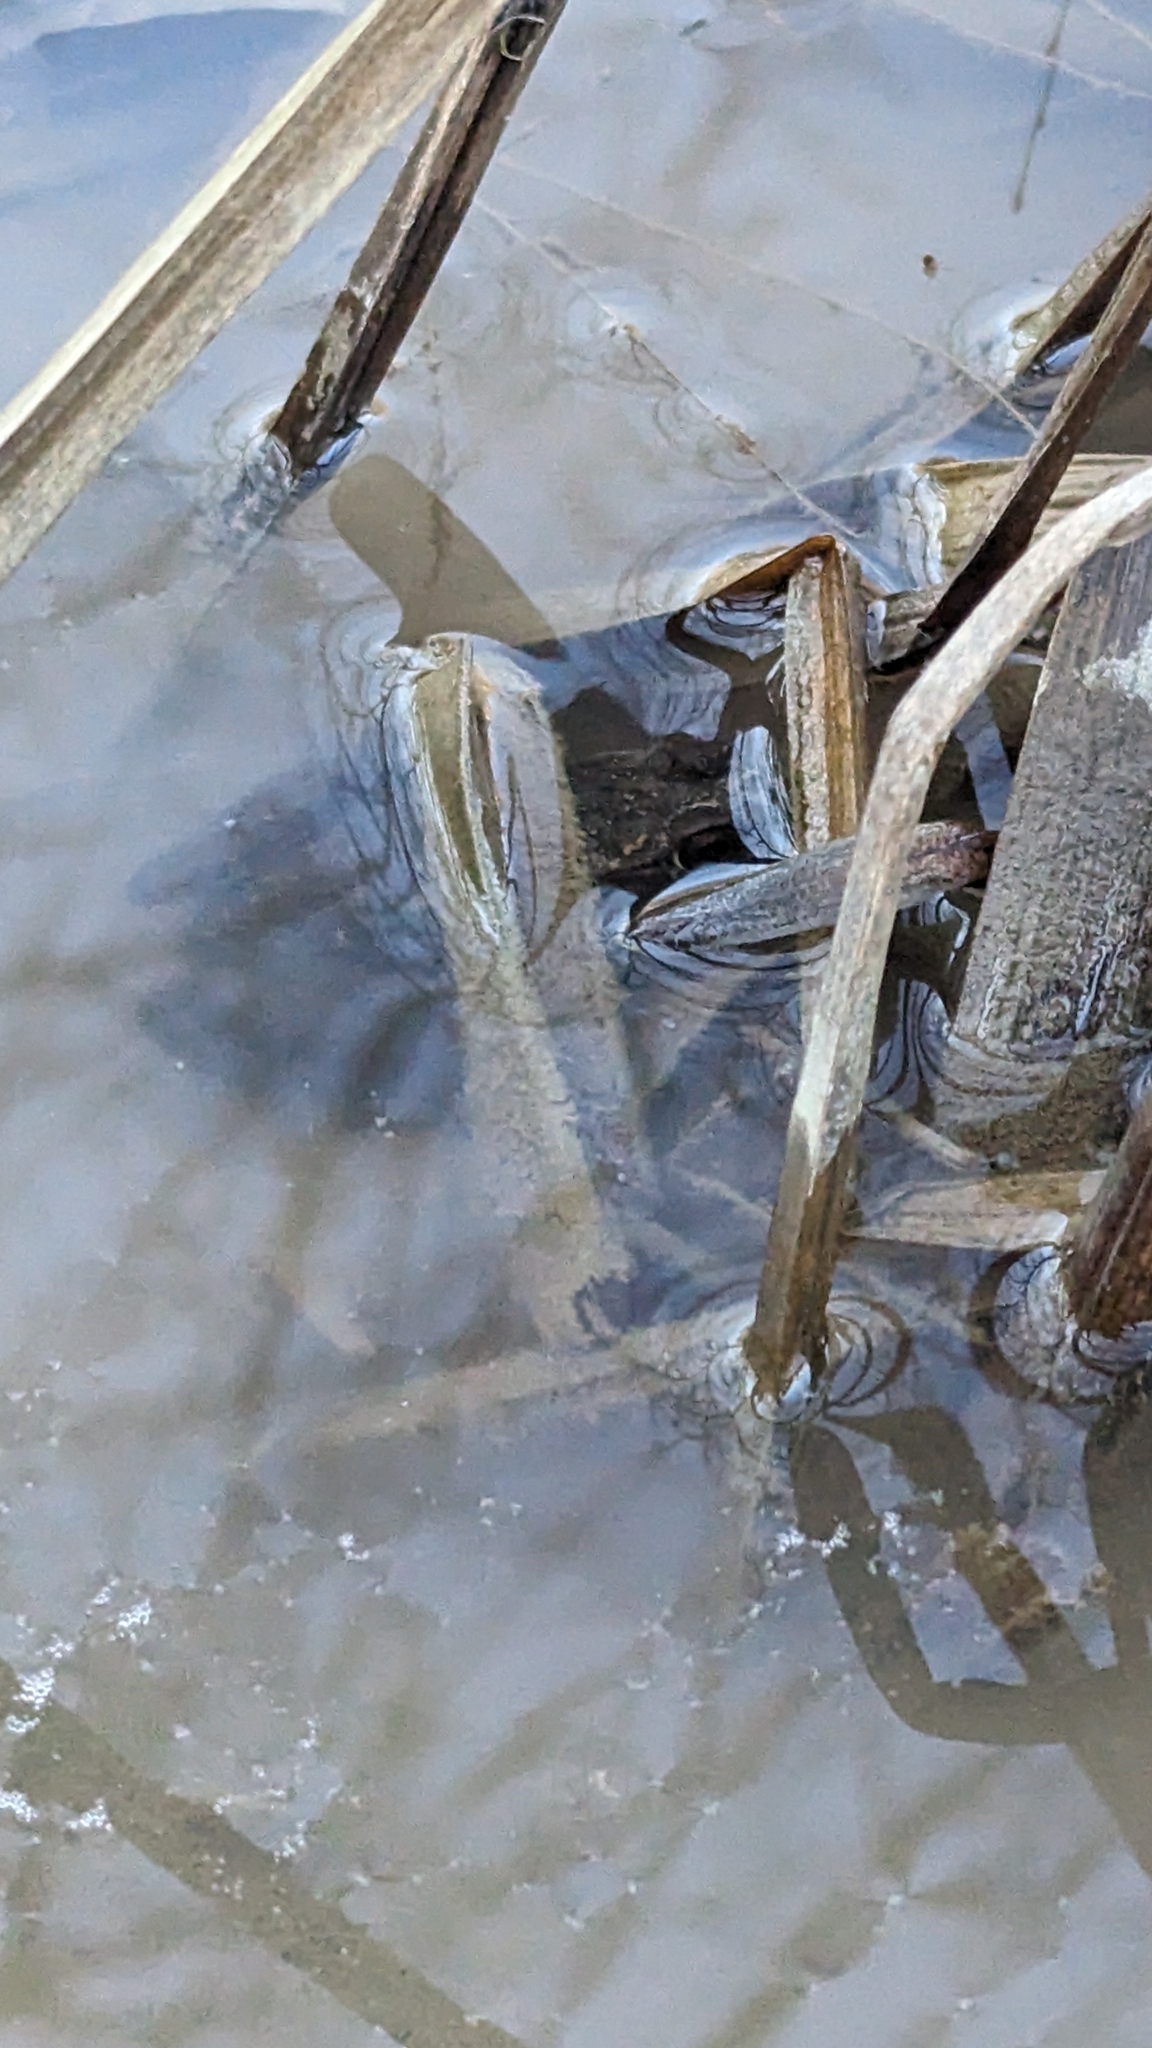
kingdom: Animalia
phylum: Chordata
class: Amphibia
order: Anura
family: Ranidae
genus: Lithobates
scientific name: Lithobates clamitans
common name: Green frog
